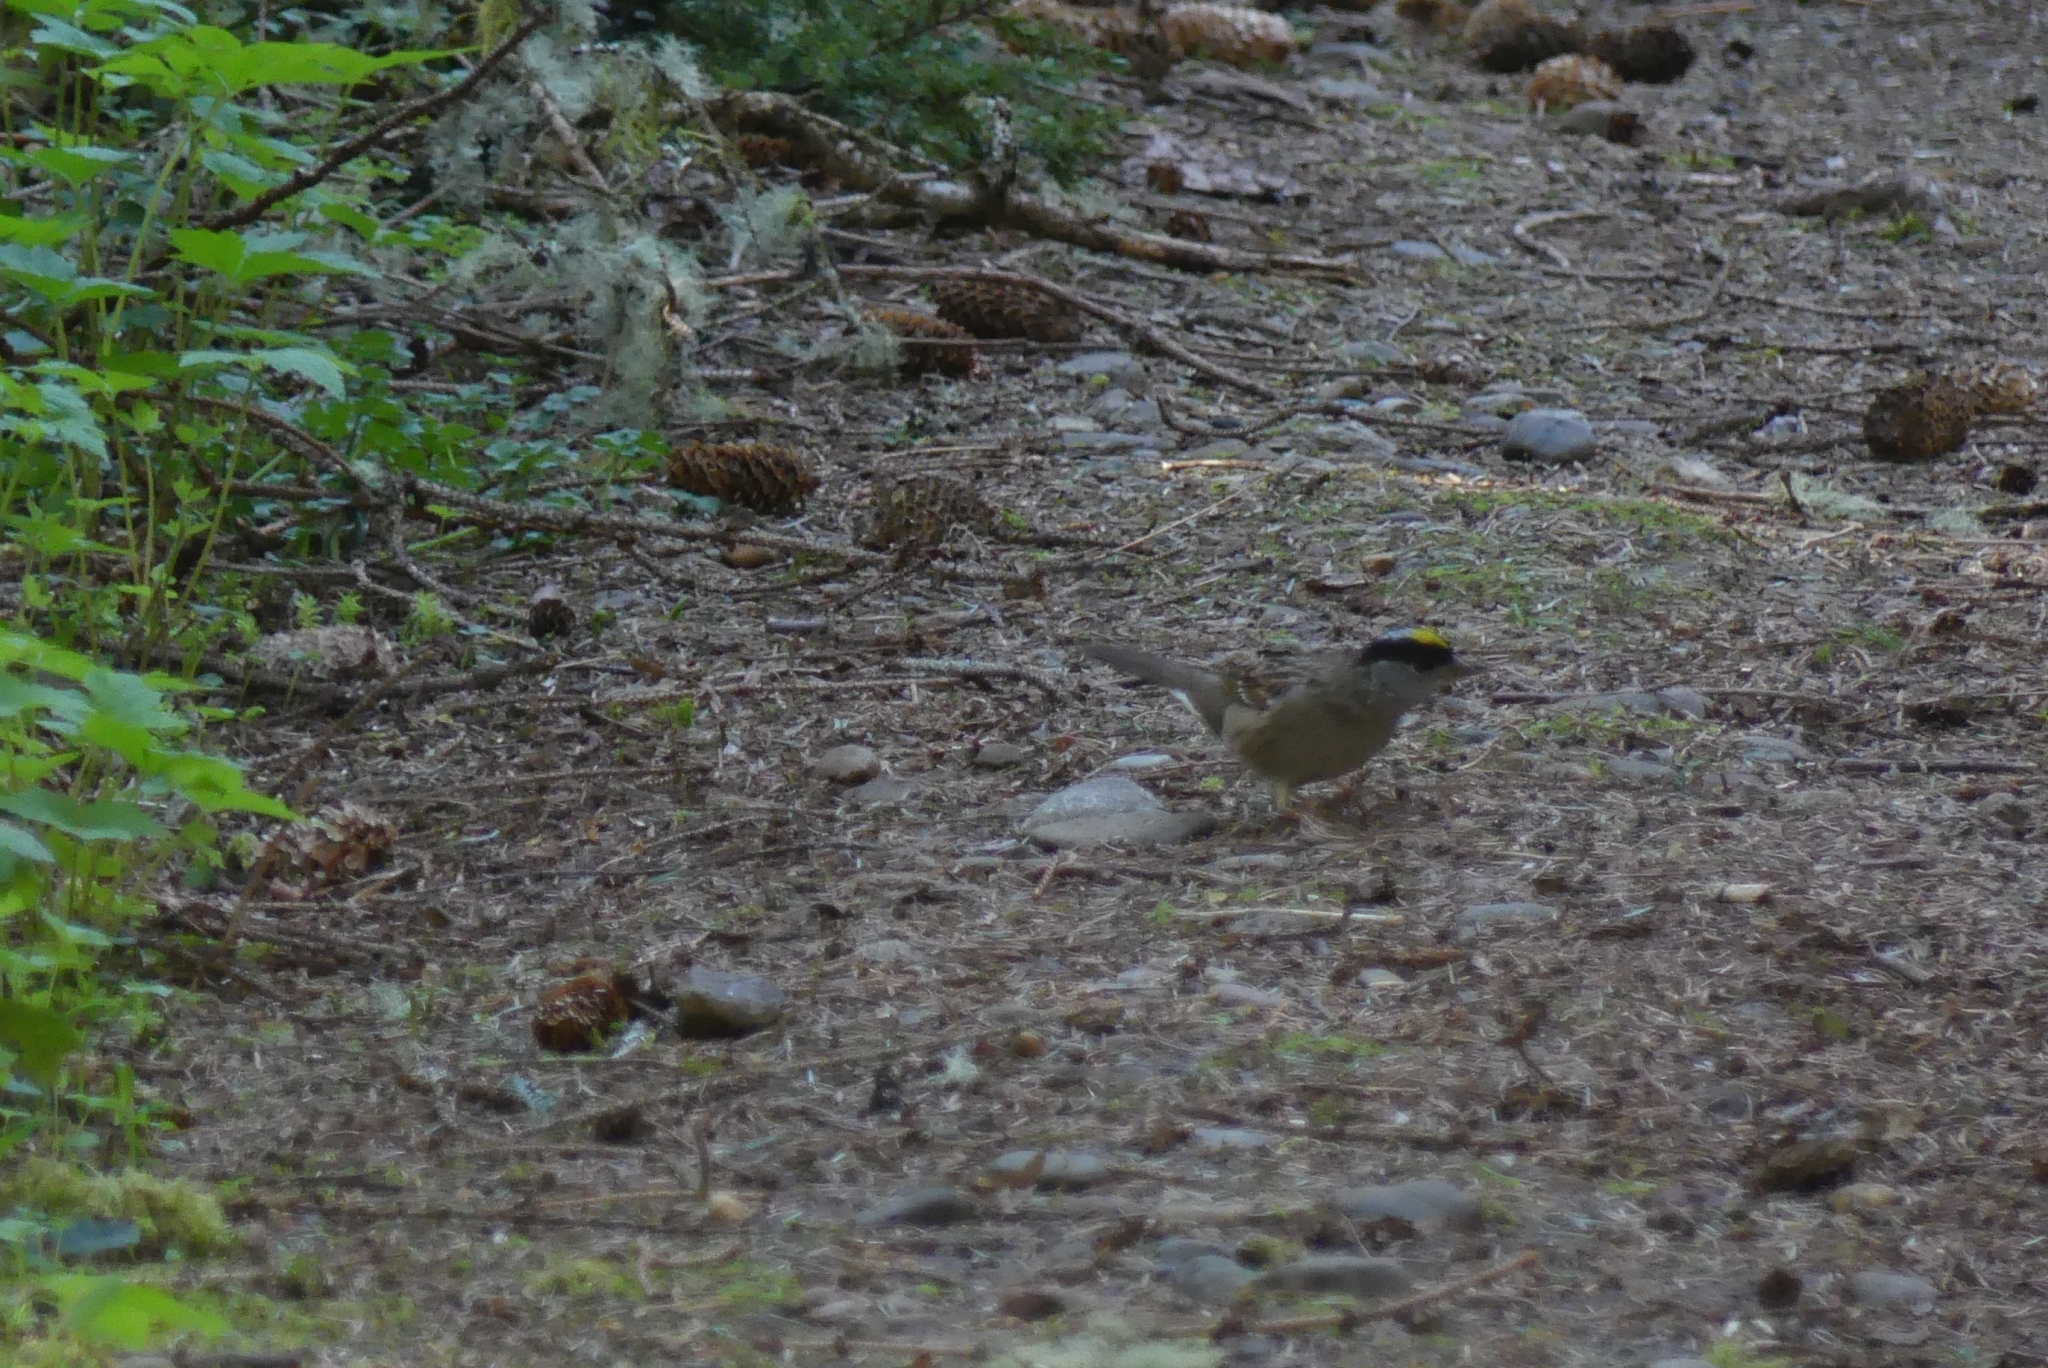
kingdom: Animalia
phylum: Chordata
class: Aves
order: Passeriformes
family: Passerellidae
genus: Zonotrichia
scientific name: Zonotrichia atricapilla
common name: Golden-crowned sparrow
